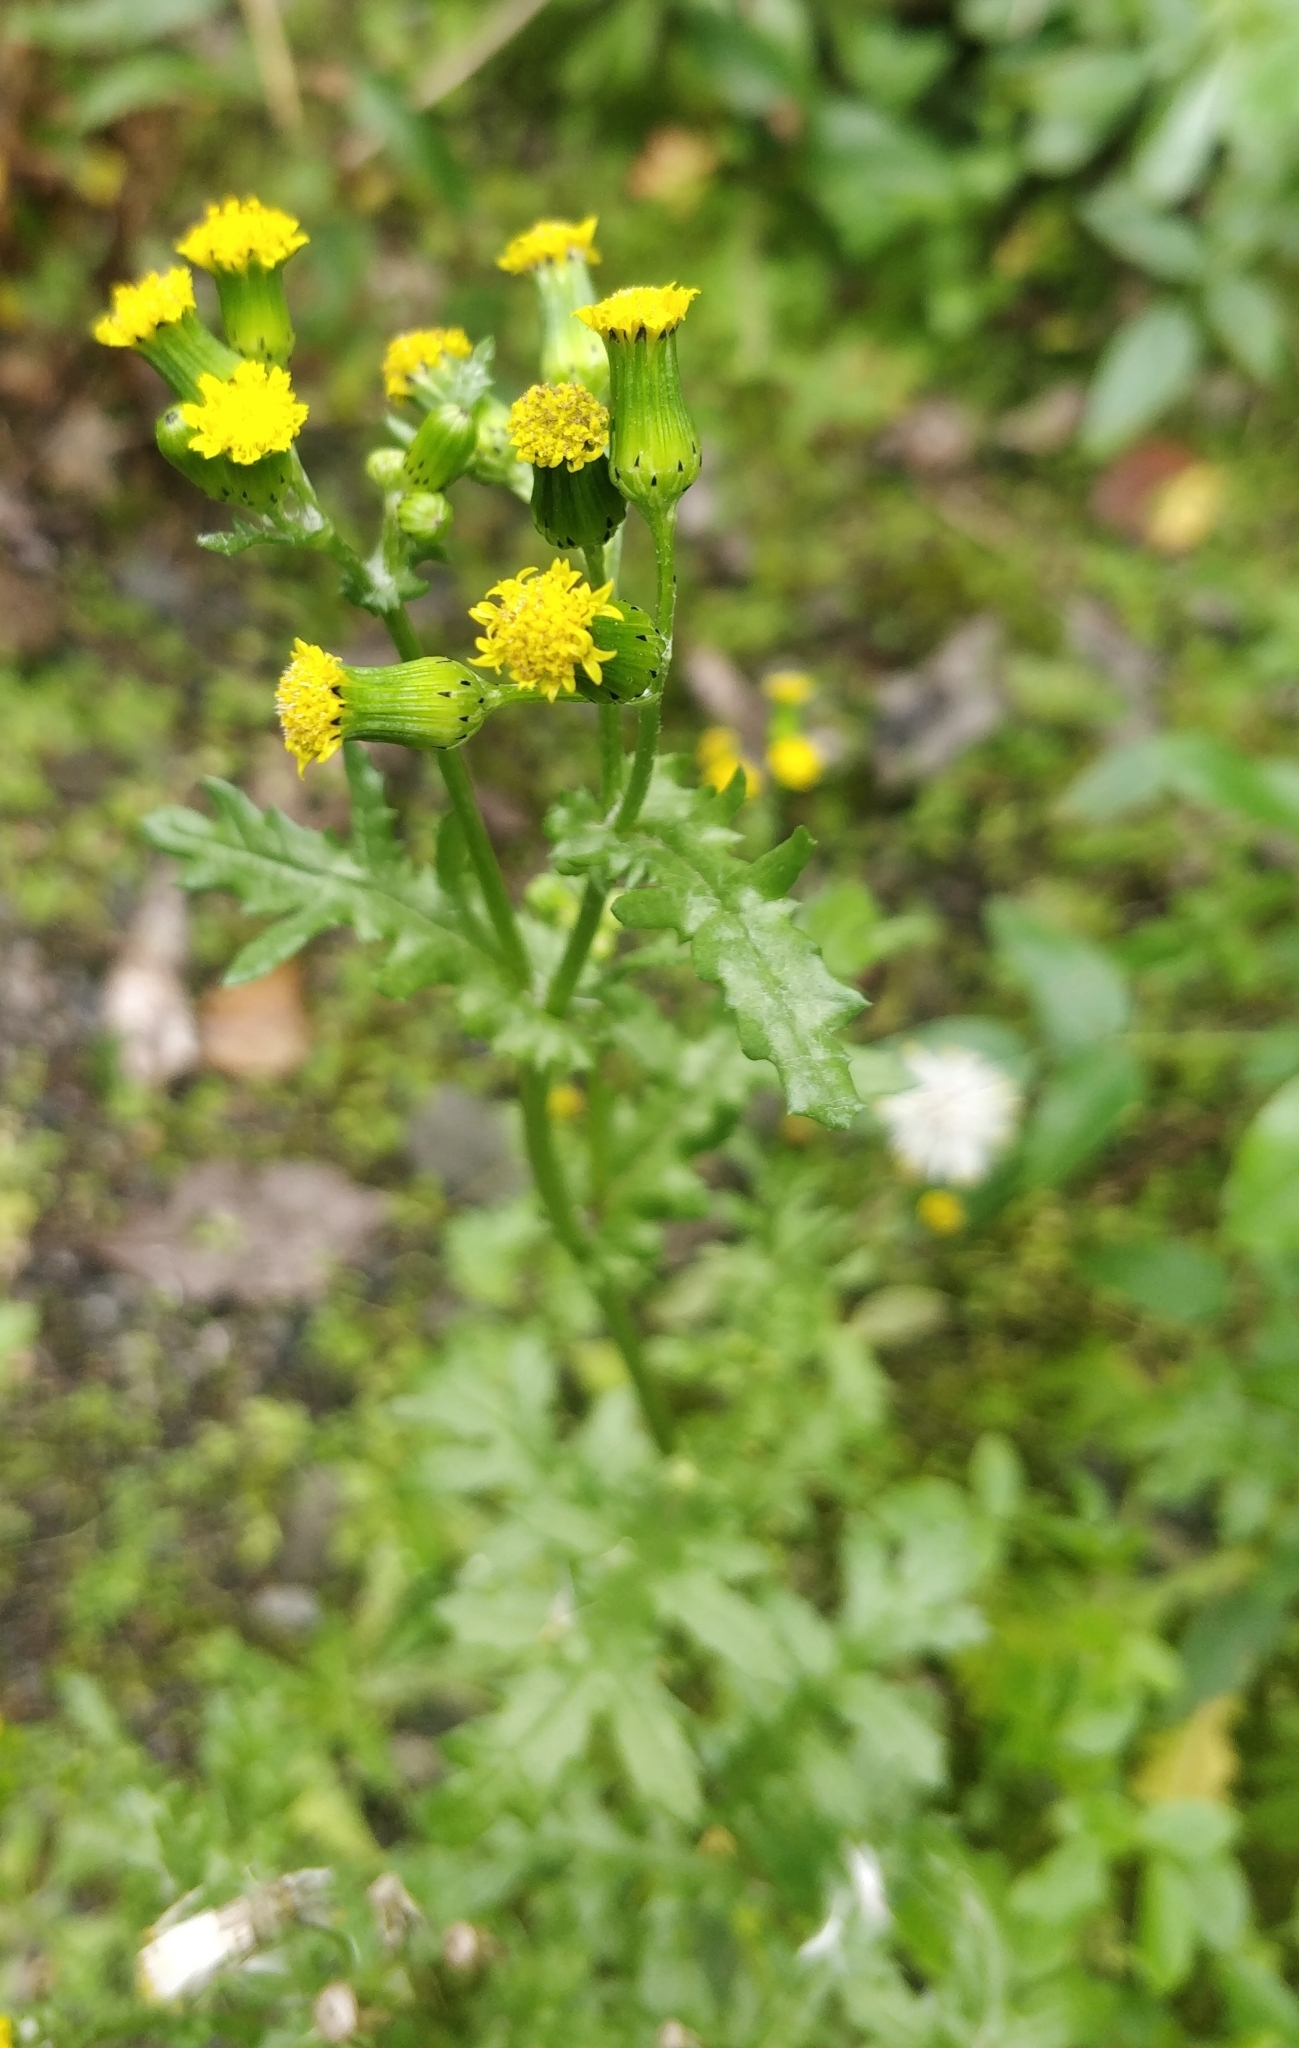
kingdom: Plantae
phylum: Tracheophyta
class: Magnoliopsida
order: Asterales
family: Asteraceae
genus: Senecio
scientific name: Senecio teneriffae
